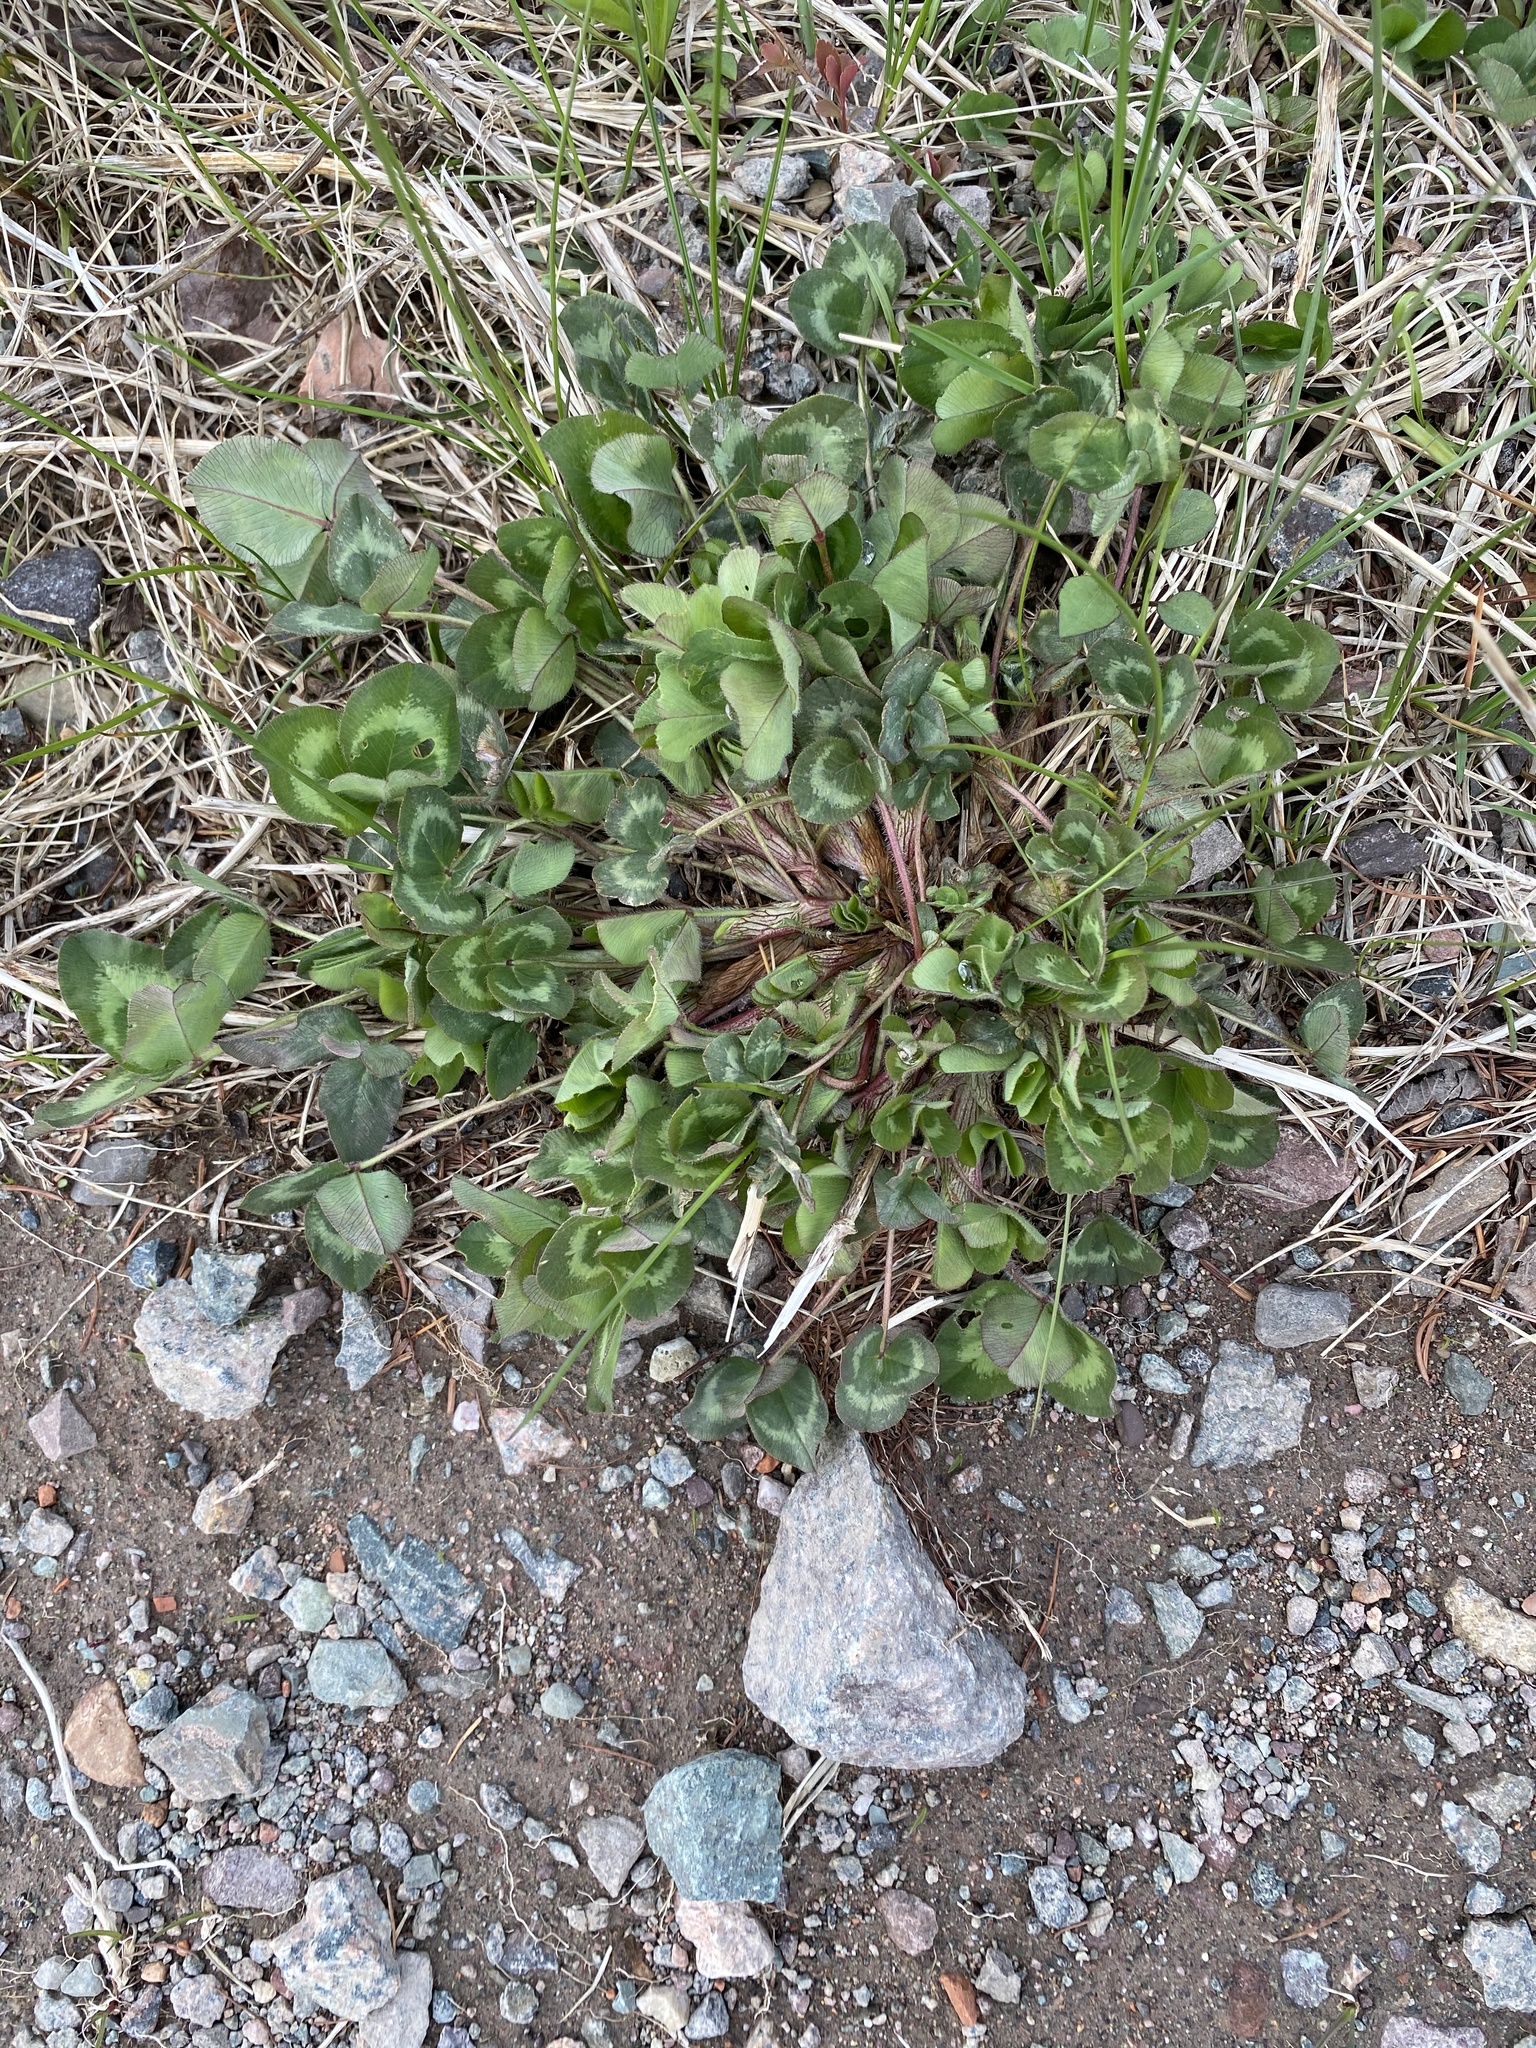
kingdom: Plantae
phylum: Tracheophyta
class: Magnoliopsida
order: Fabales
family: Fabaceae
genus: Trifolium
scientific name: Trifolium pratense
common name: Red clover
